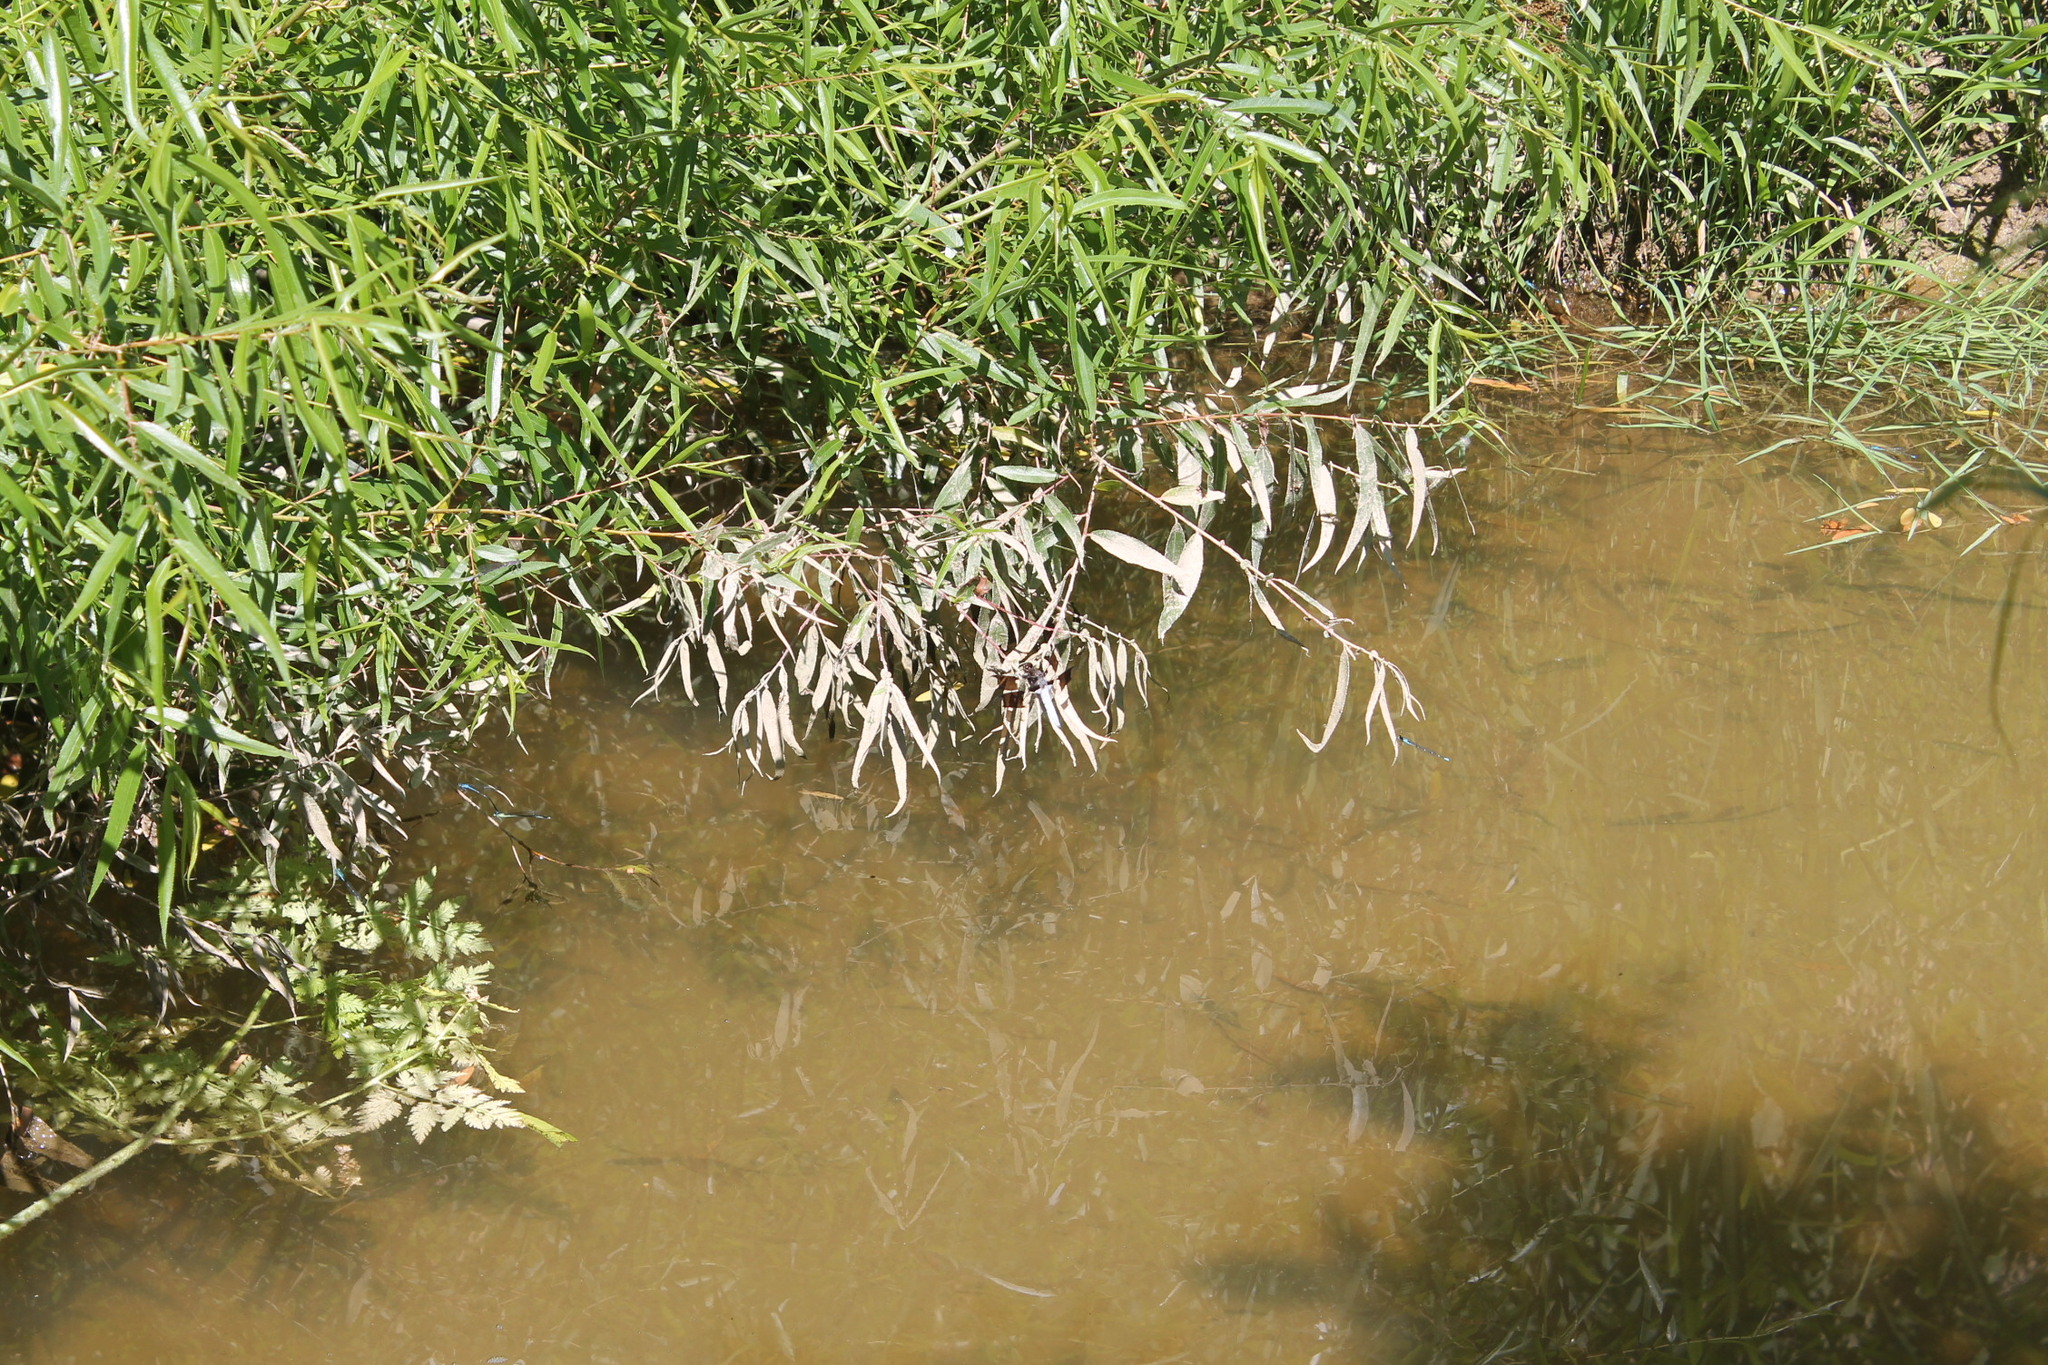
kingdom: Animalia
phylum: Arthropoda
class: Insecta
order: Odonata
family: Libellulidae
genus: Plathemis
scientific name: Plathemis lydia
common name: Common whitetail
